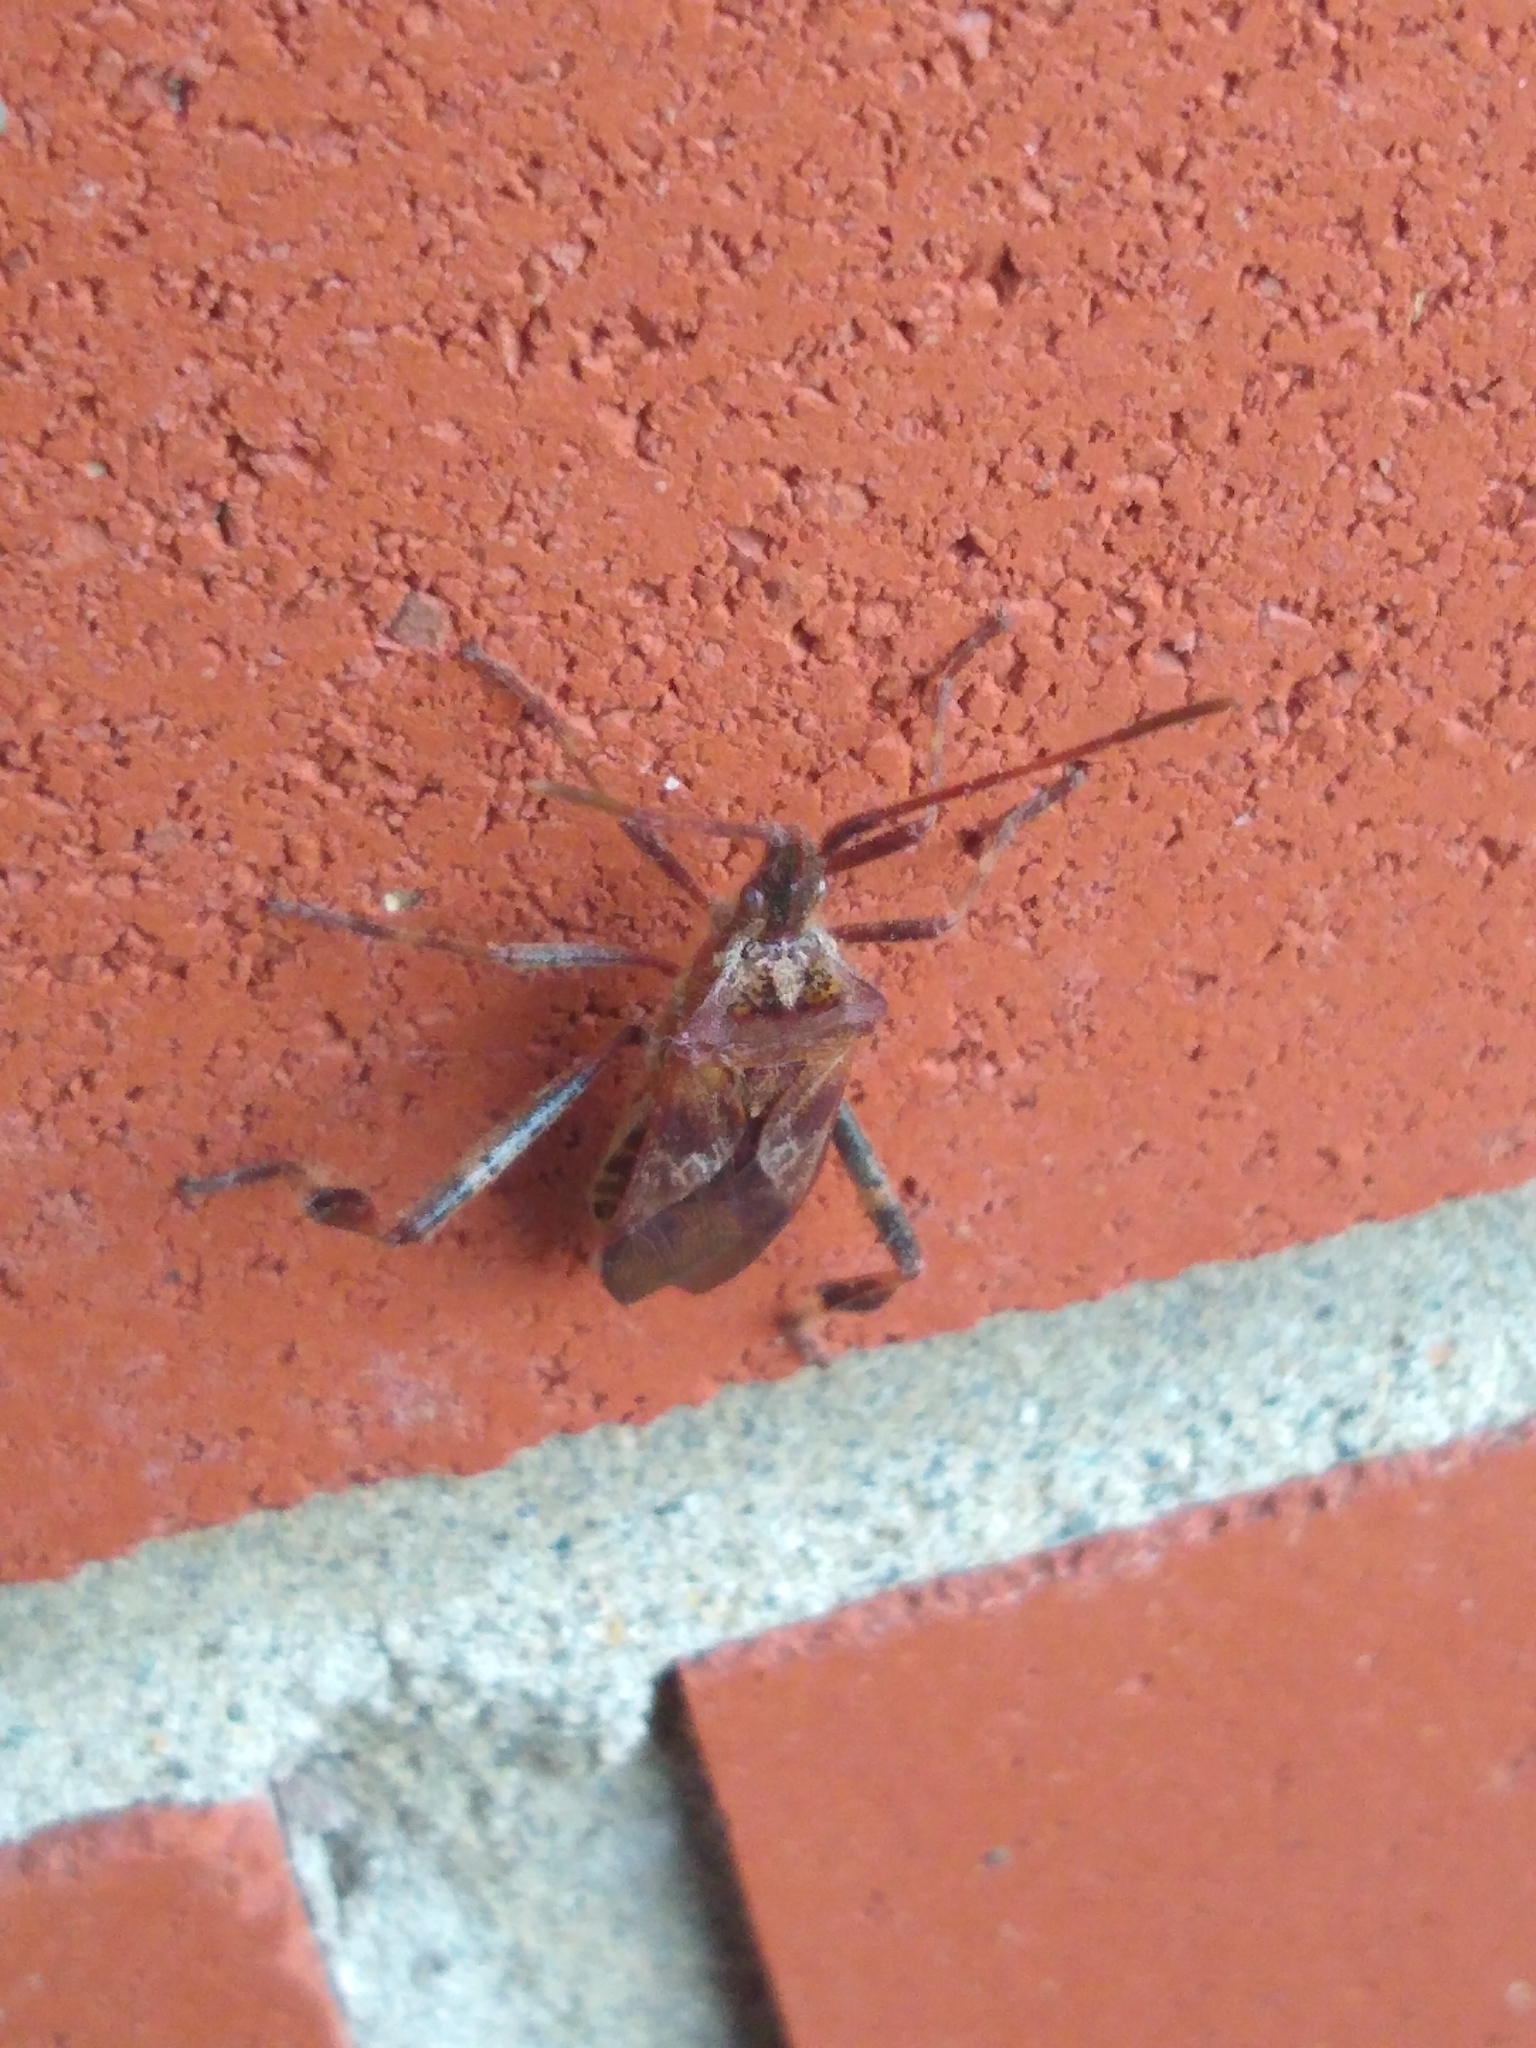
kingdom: Animalia
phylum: Arthropoda
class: Insecta
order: Hemiptera
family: Coreidae
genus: Leptoglossus
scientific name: Leptoglossus occidentalis
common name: Western conifer-seed bug
